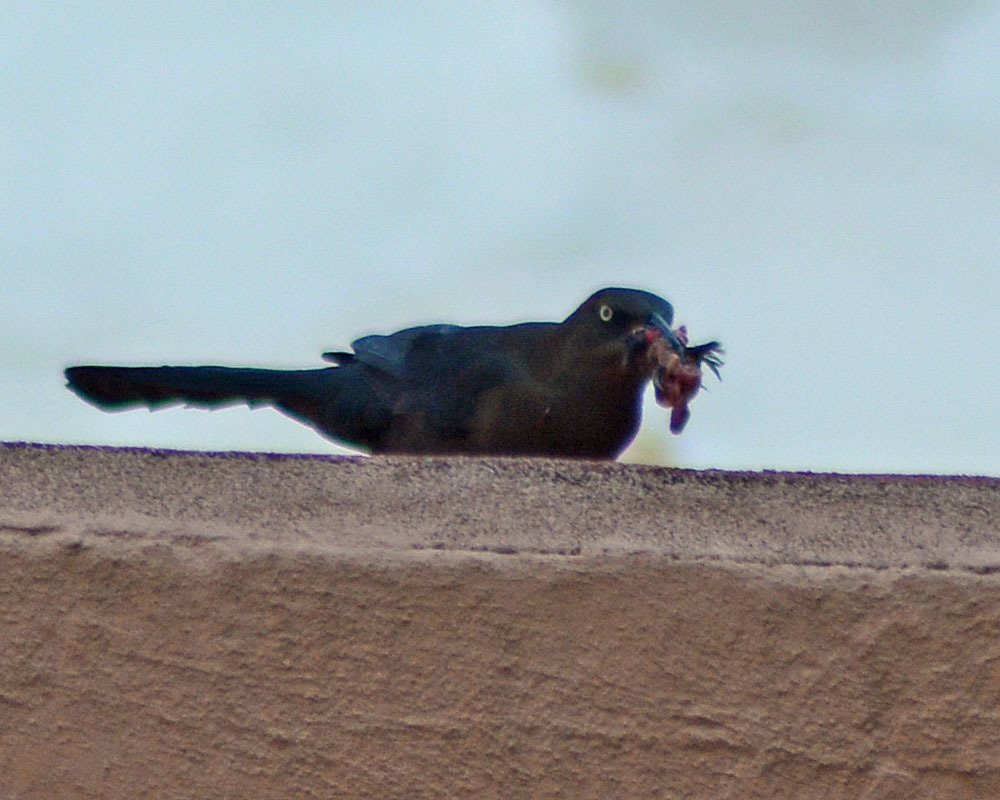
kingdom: Animalia
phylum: Chordata
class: Aves
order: Passeriformes
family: Icteridae
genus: Quiscalus
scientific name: Quiscalus mexicanus
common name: Great-tailed grackle
